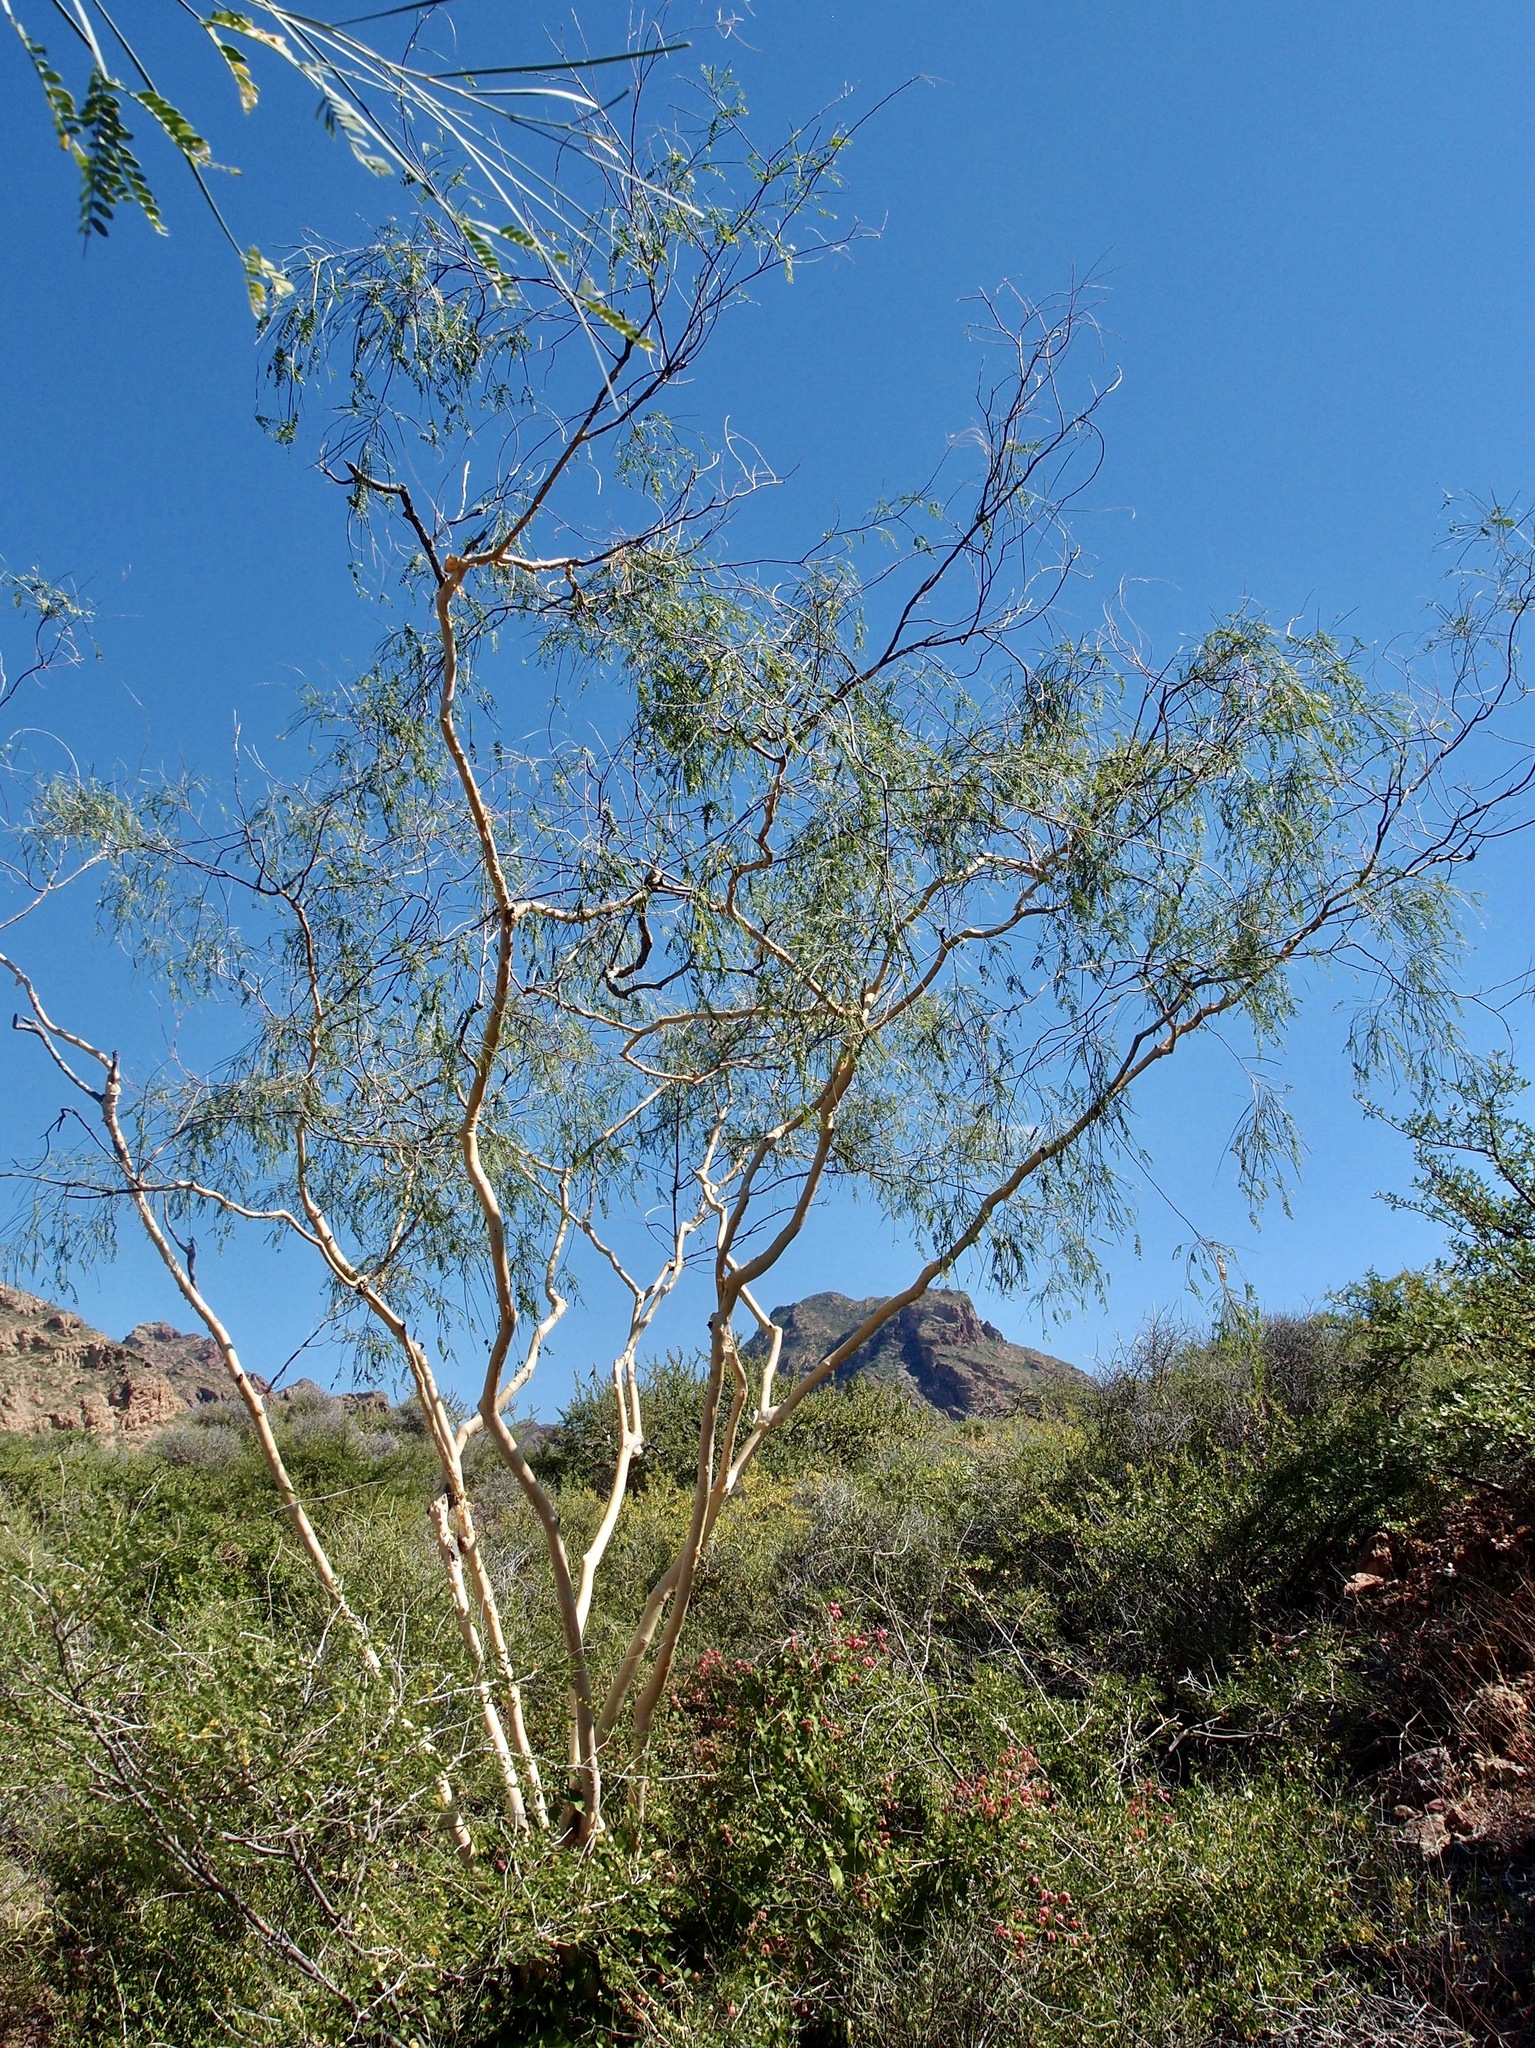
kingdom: Plantae
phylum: Tracheophyta
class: Magnoliopsida
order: Fabales
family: Fabaceae
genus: Mariosousa
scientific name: Mariosousa heterophylla
